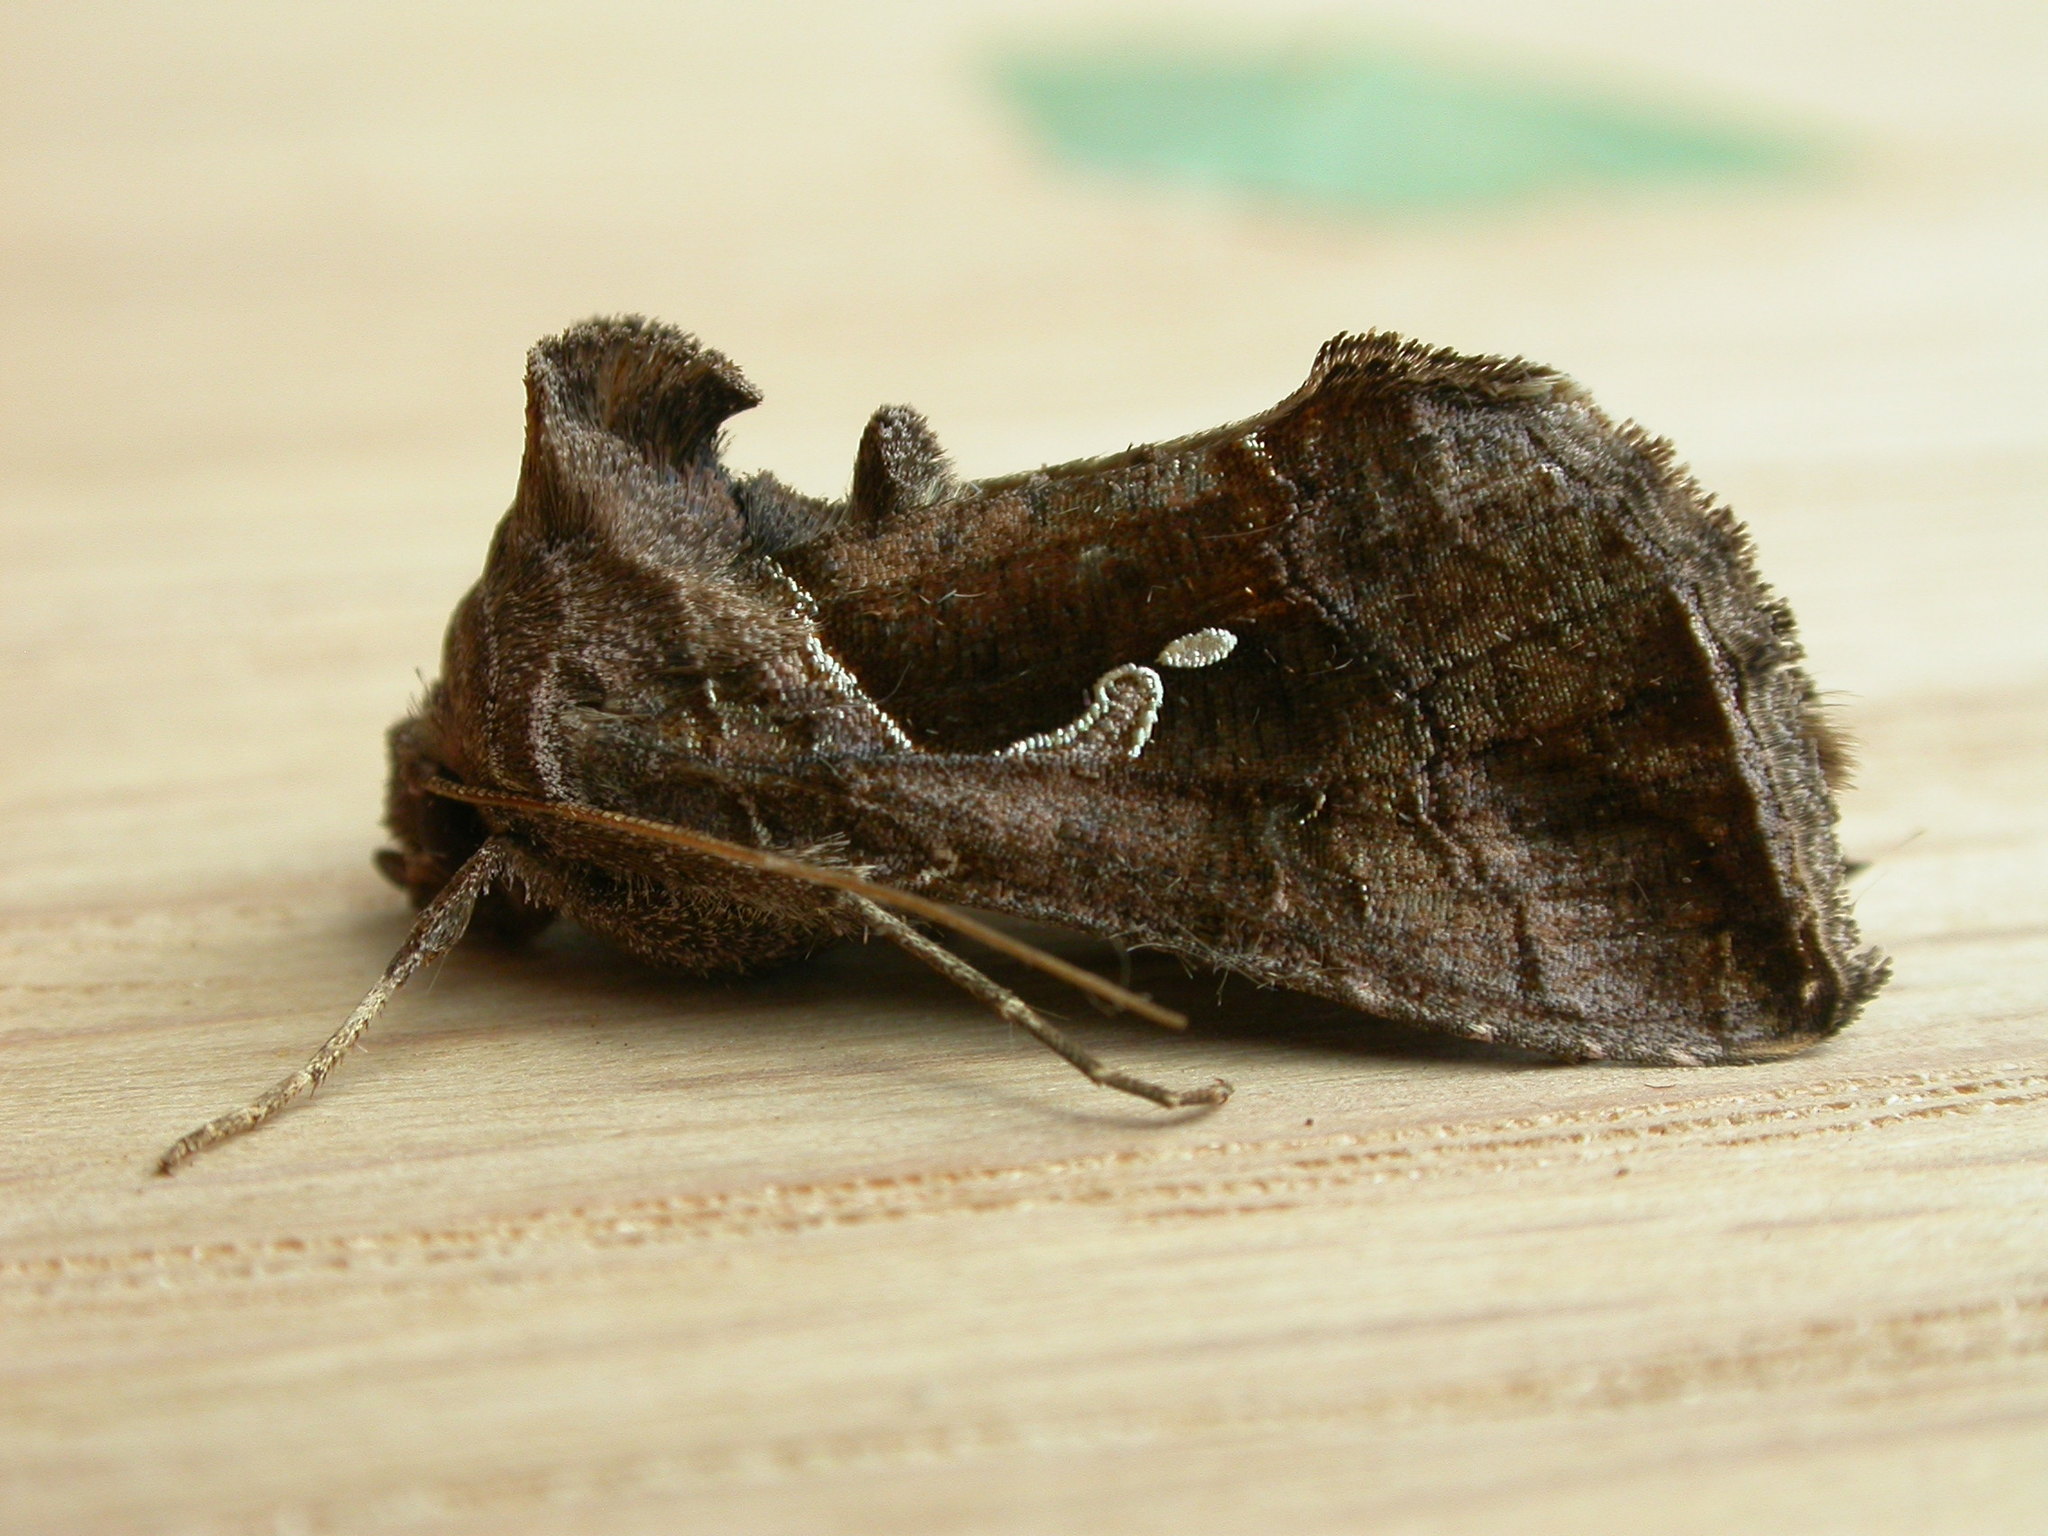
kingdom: Animalia
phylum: Arthropoda
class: Insecta
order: Lepidoptera
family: Noctuidae
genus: Chrysodeixis
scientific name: Chrysodeixis subsidens
